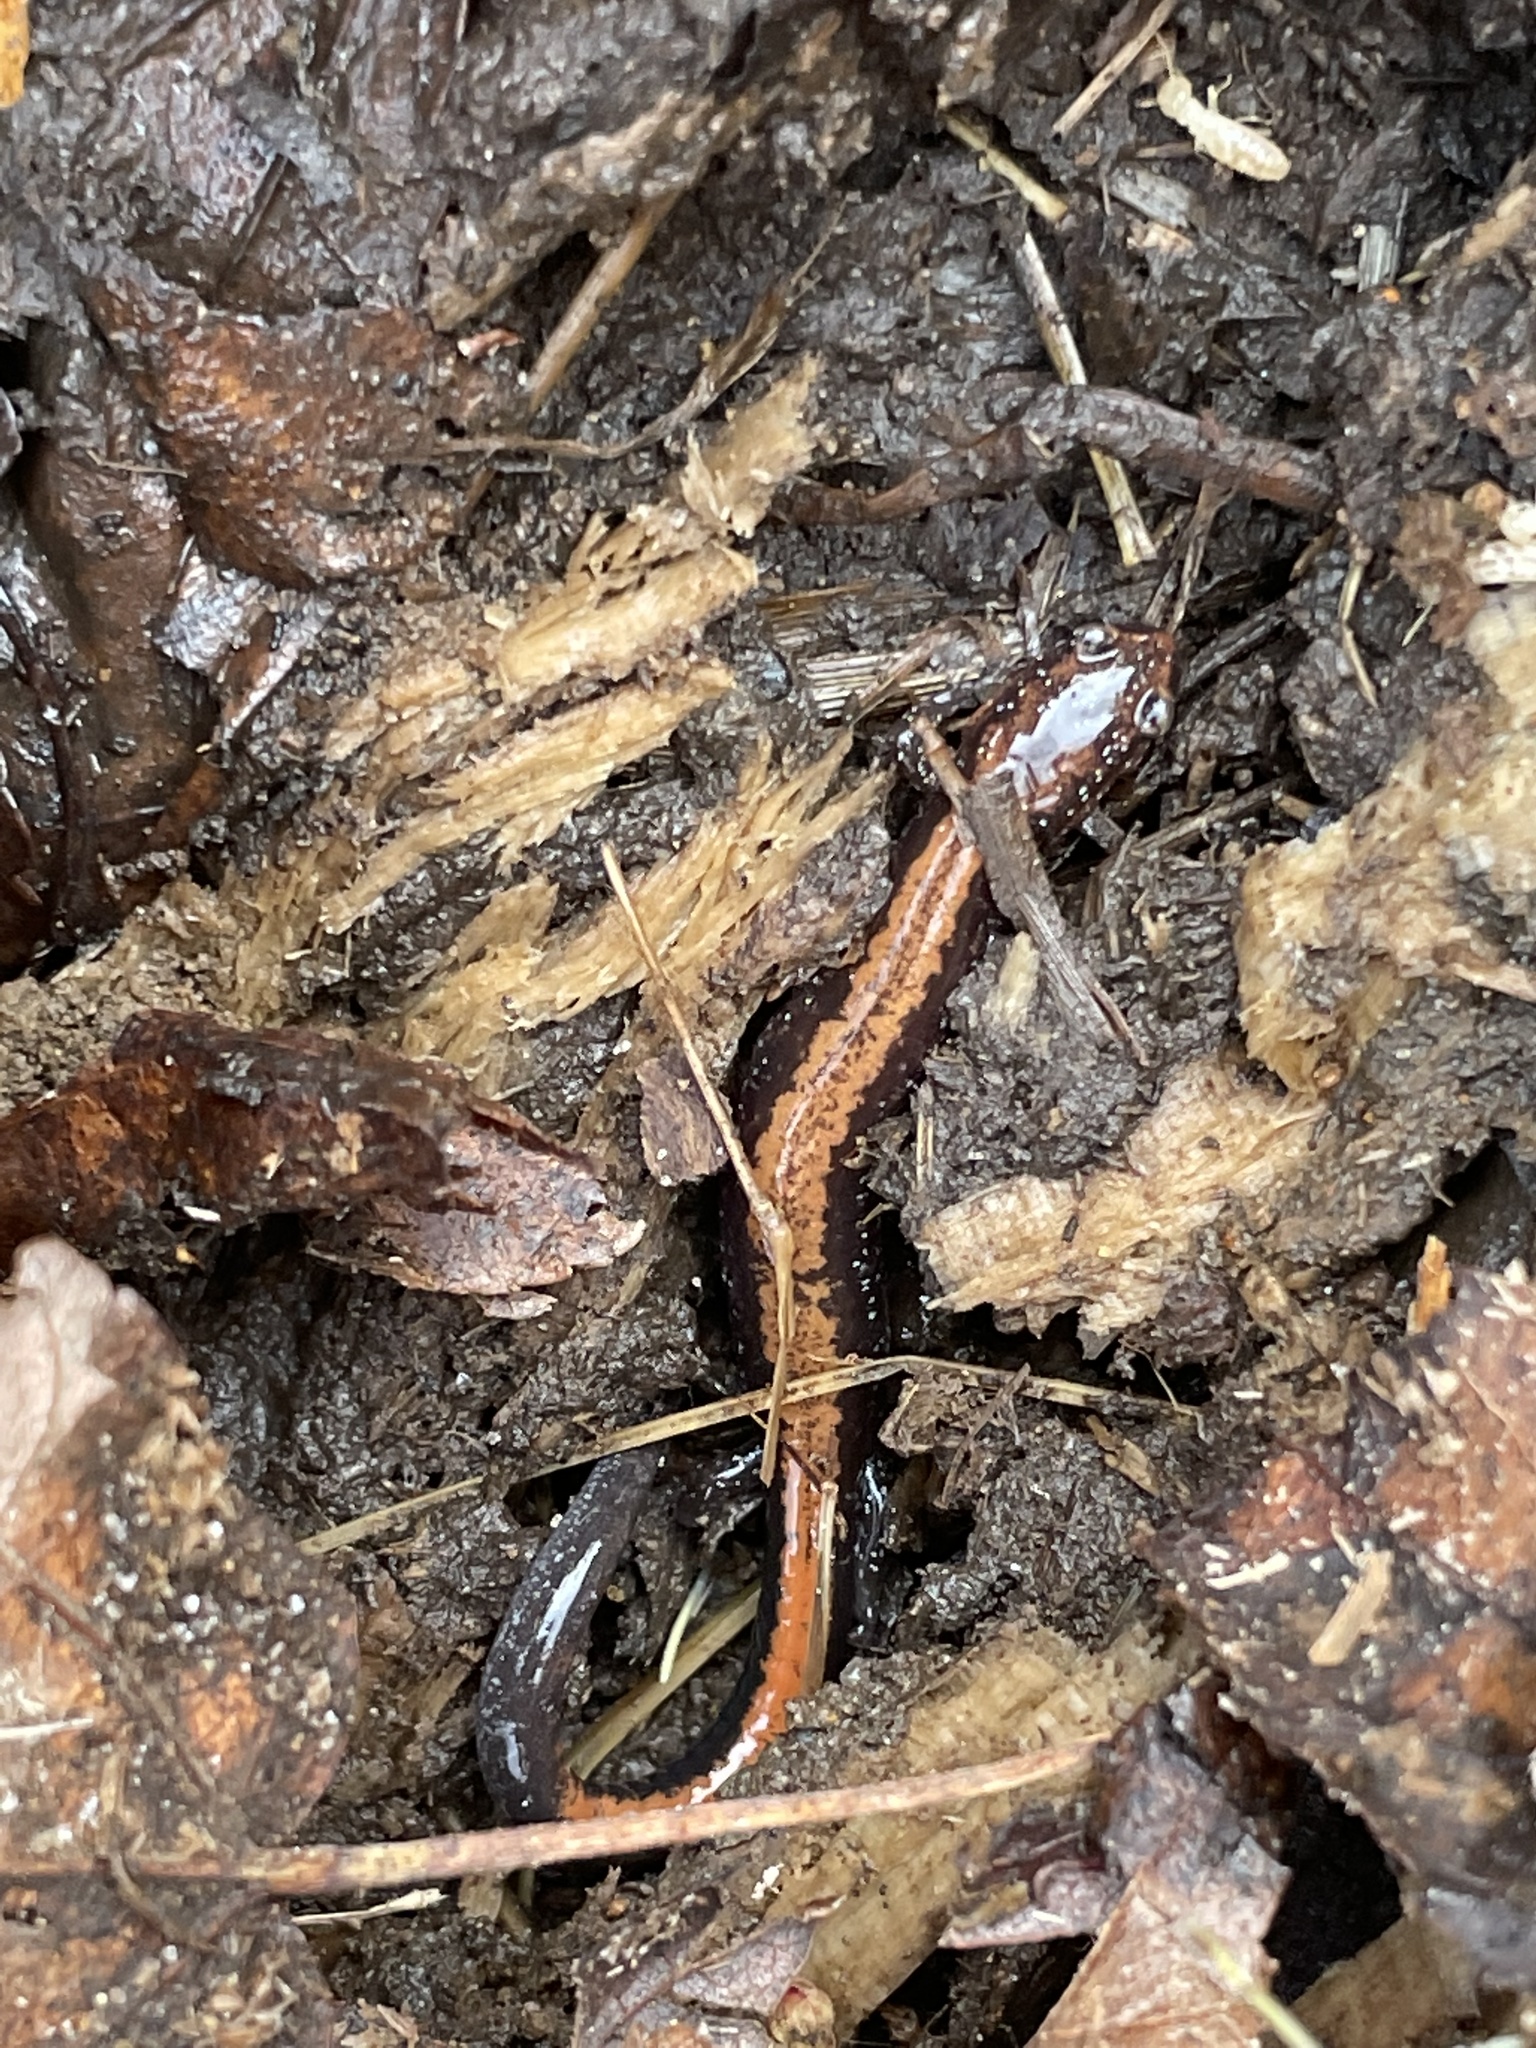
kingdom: Animalia
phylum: Chordata
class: Amphibia
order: Caudata
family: Plethodontidae
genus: Plethodon
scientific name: Plethodon cinereus
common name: Redback salamander
